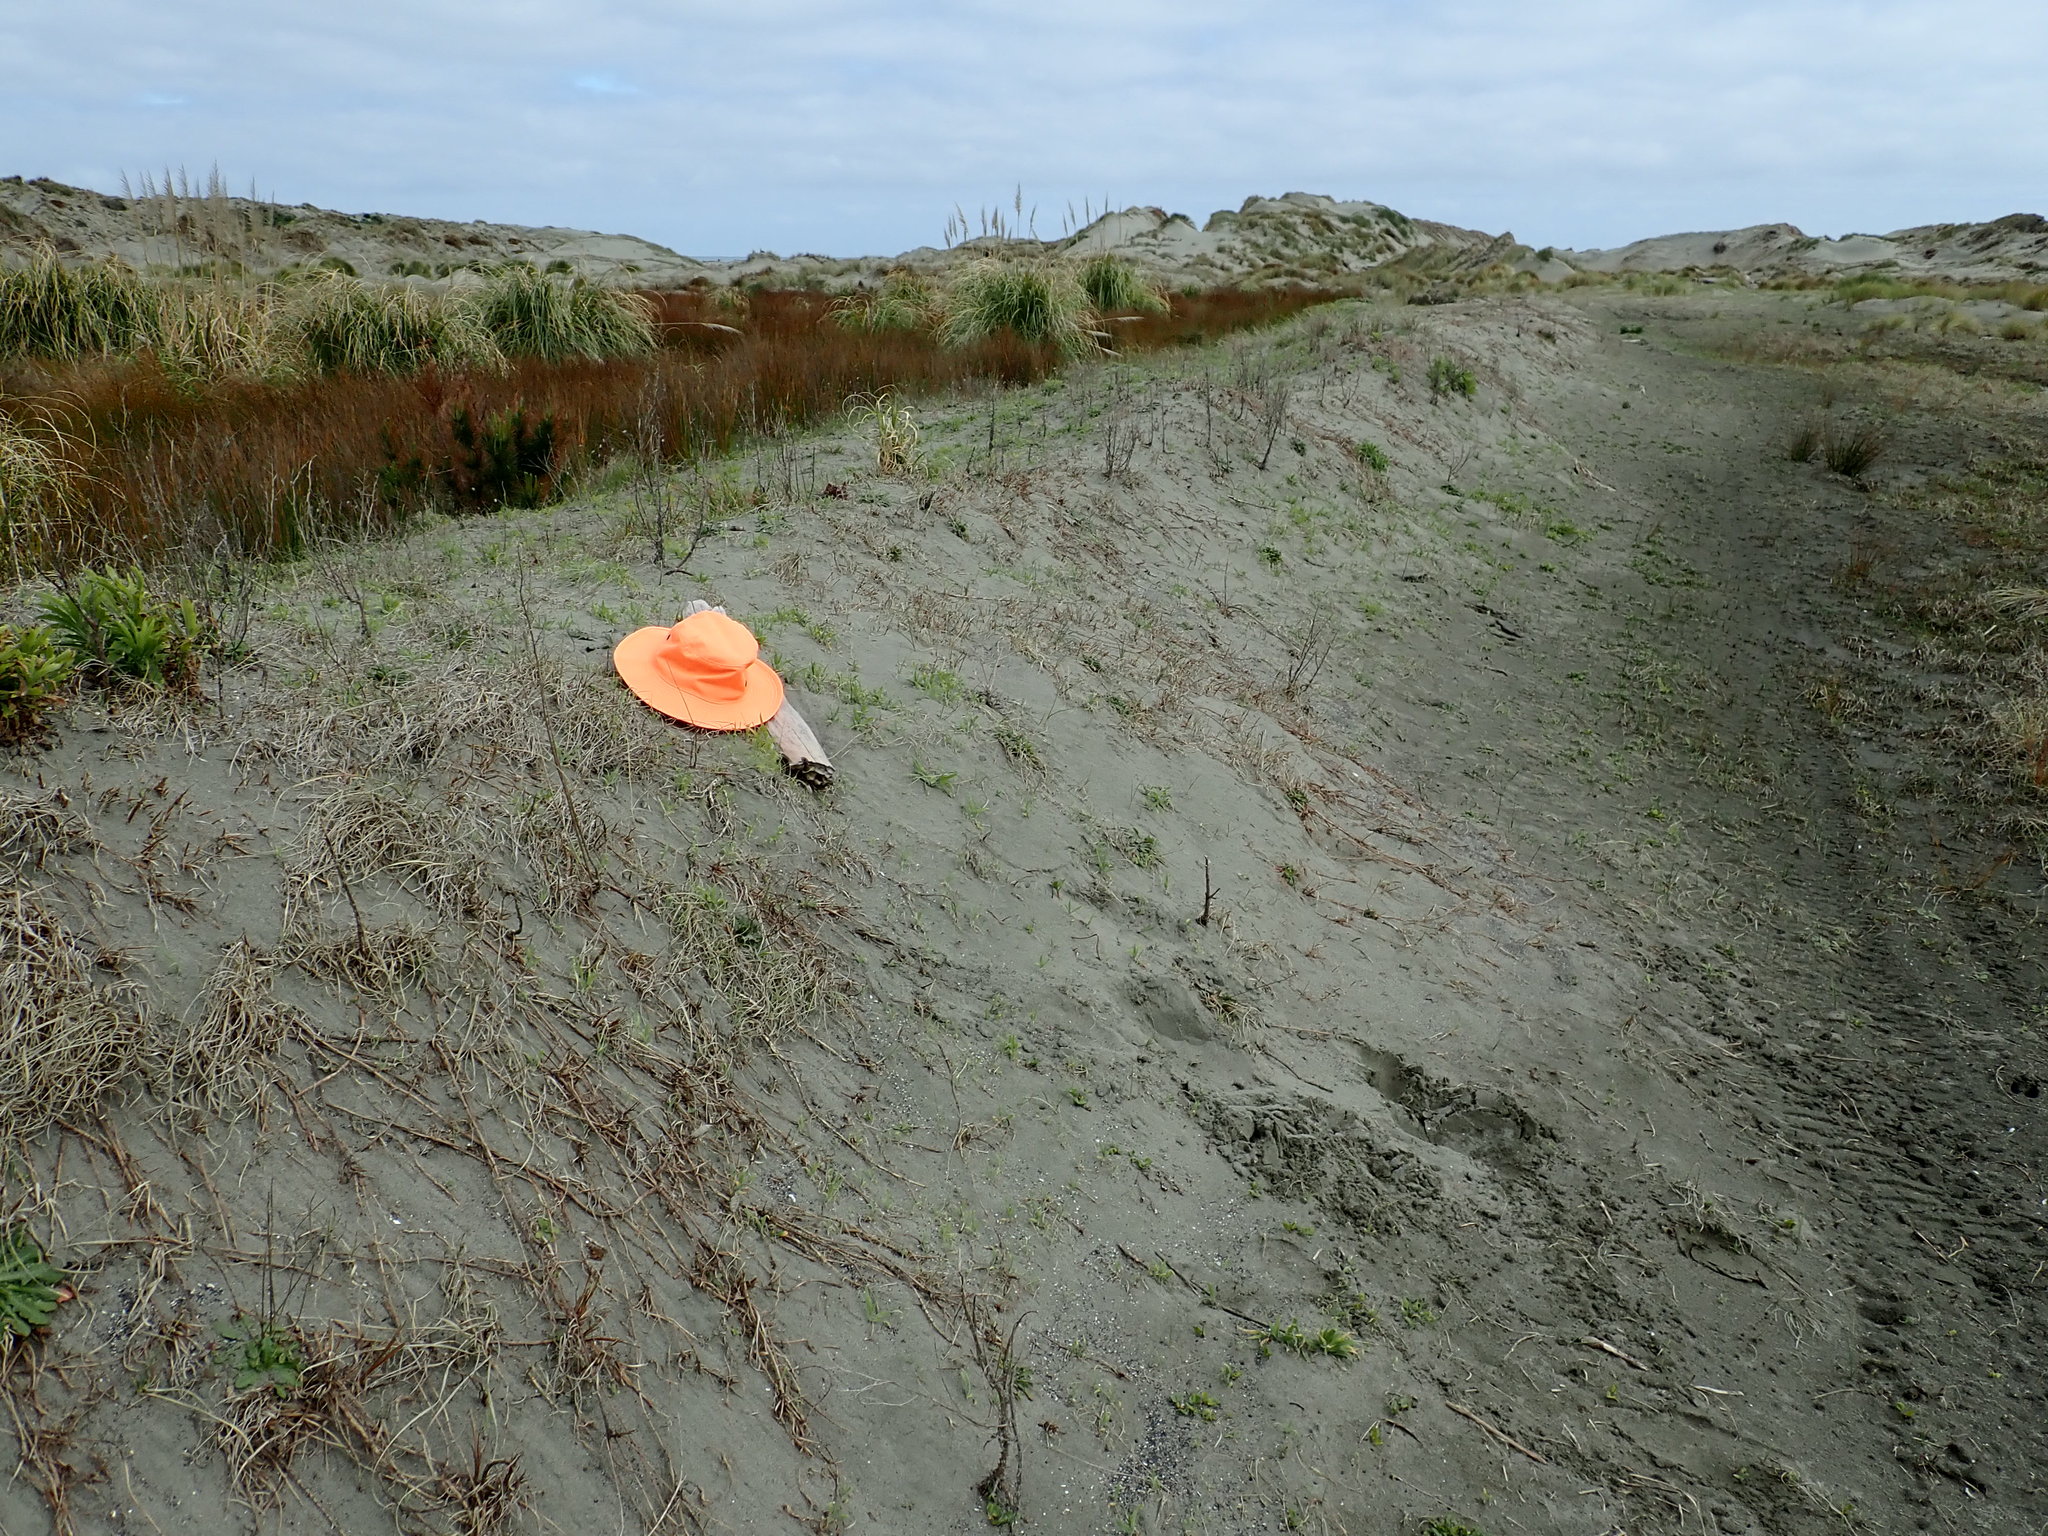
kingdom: Animalia
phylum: Arthropoda
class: Arachnida
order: Araneae
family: Theridiidae
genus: Latrodectus
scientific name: Latrodectus katipo
